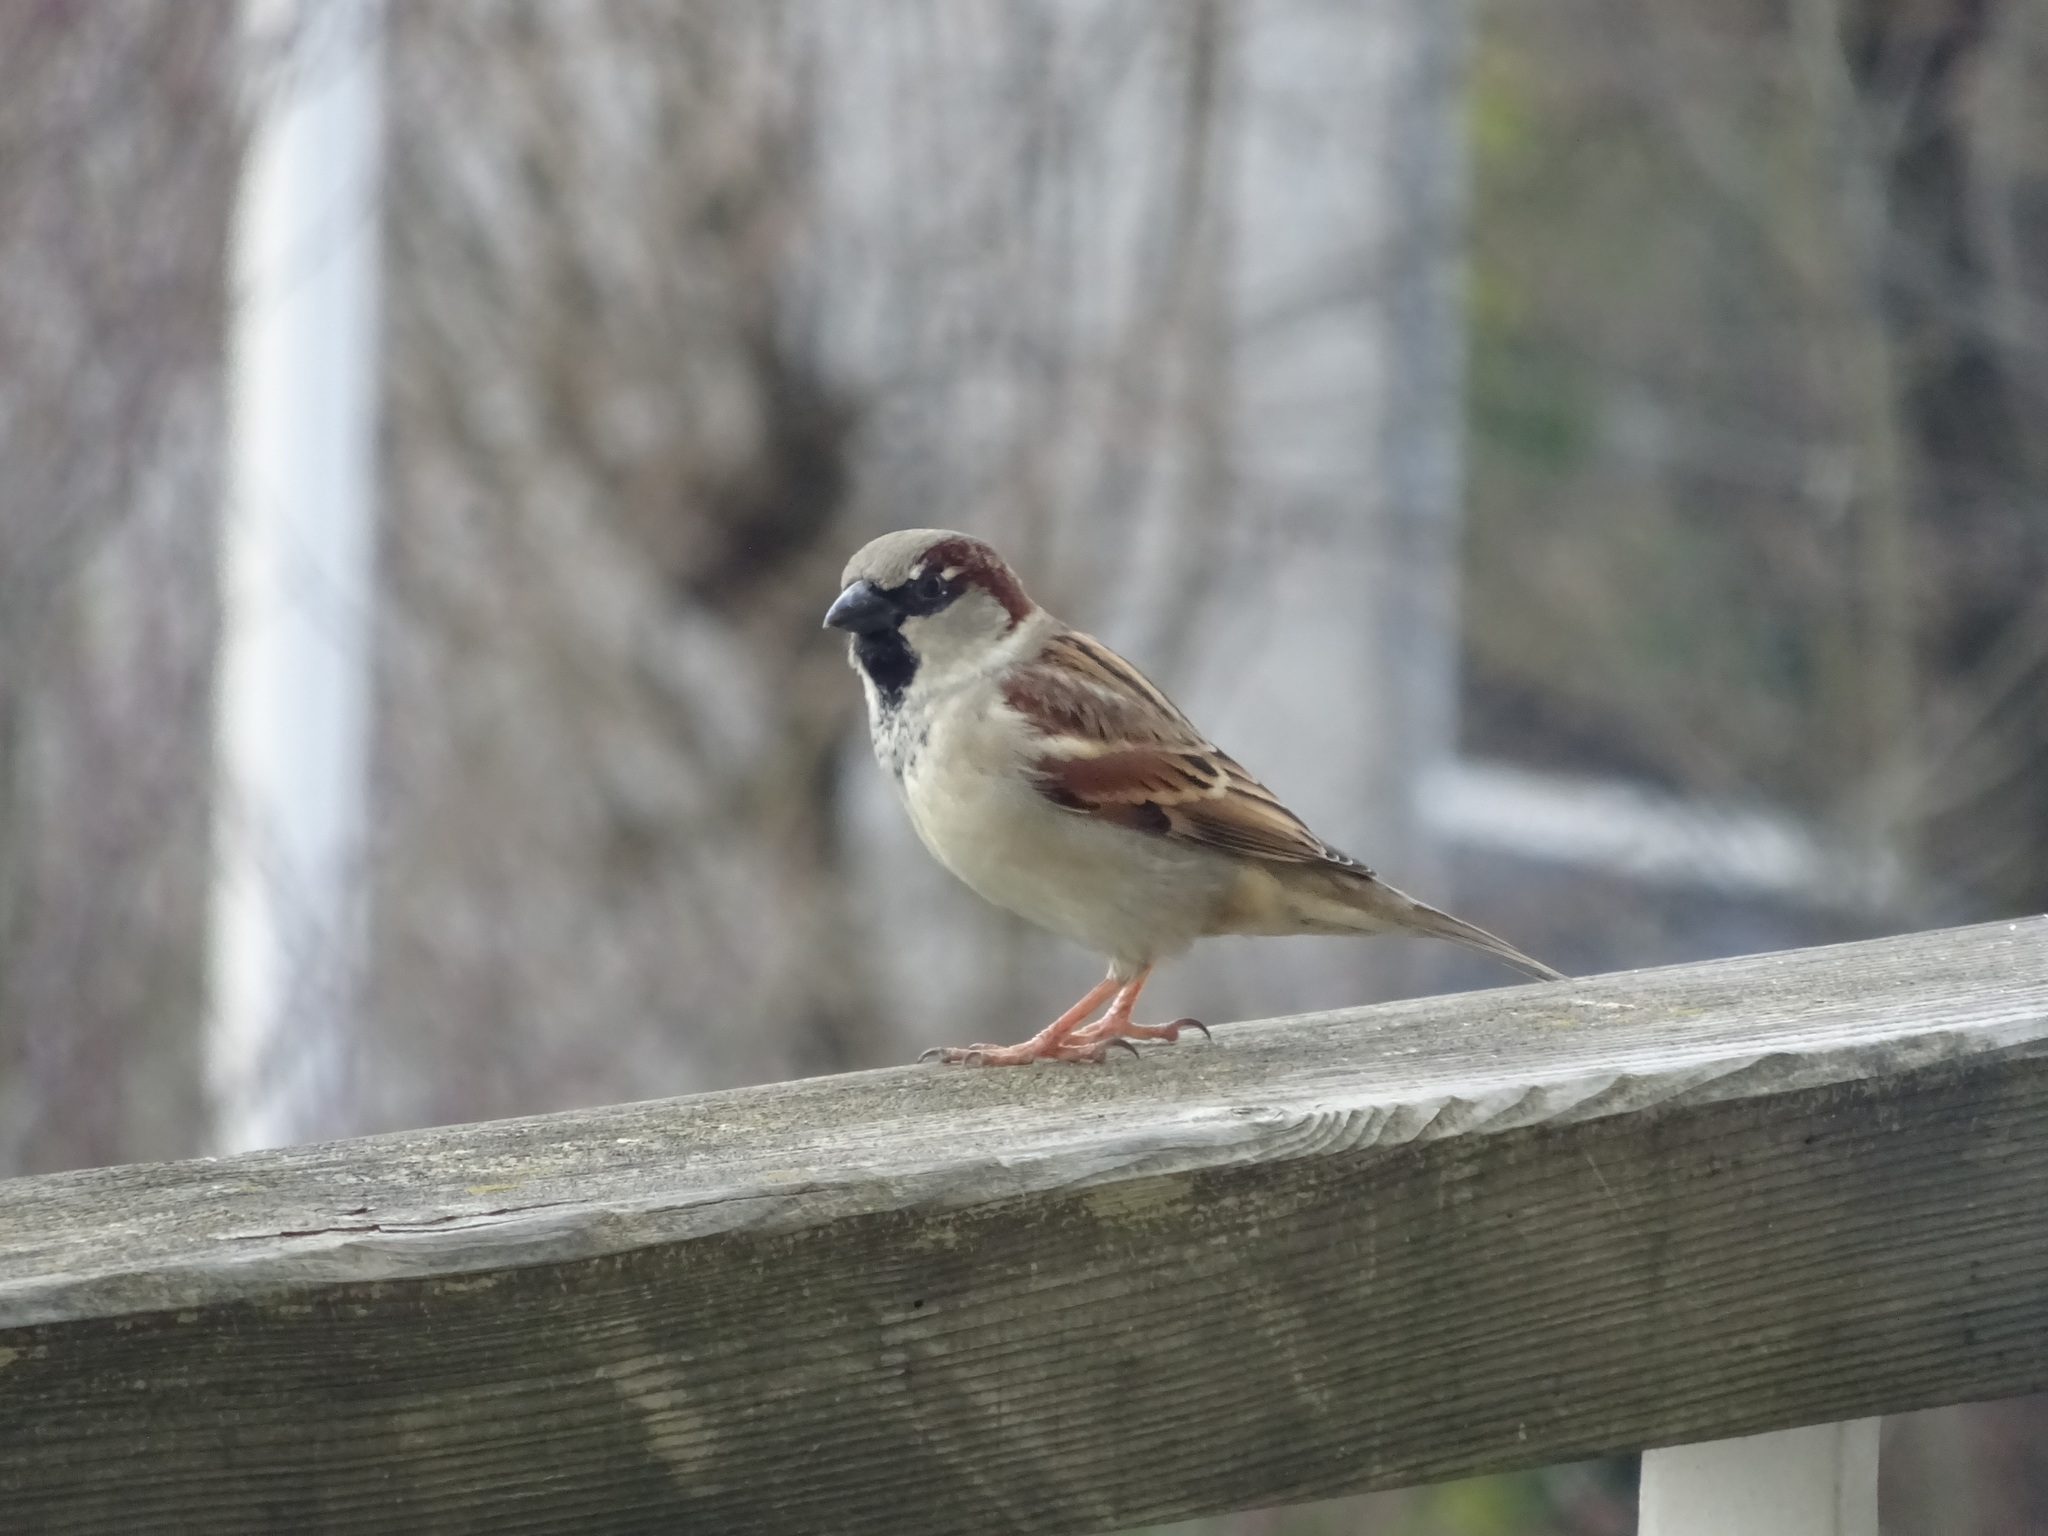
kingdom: Animalia
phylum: Chordata
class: Aves
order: Passeriformes
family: Passeridae
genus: Passer
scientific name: Passer domesticus
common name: House sparrow
